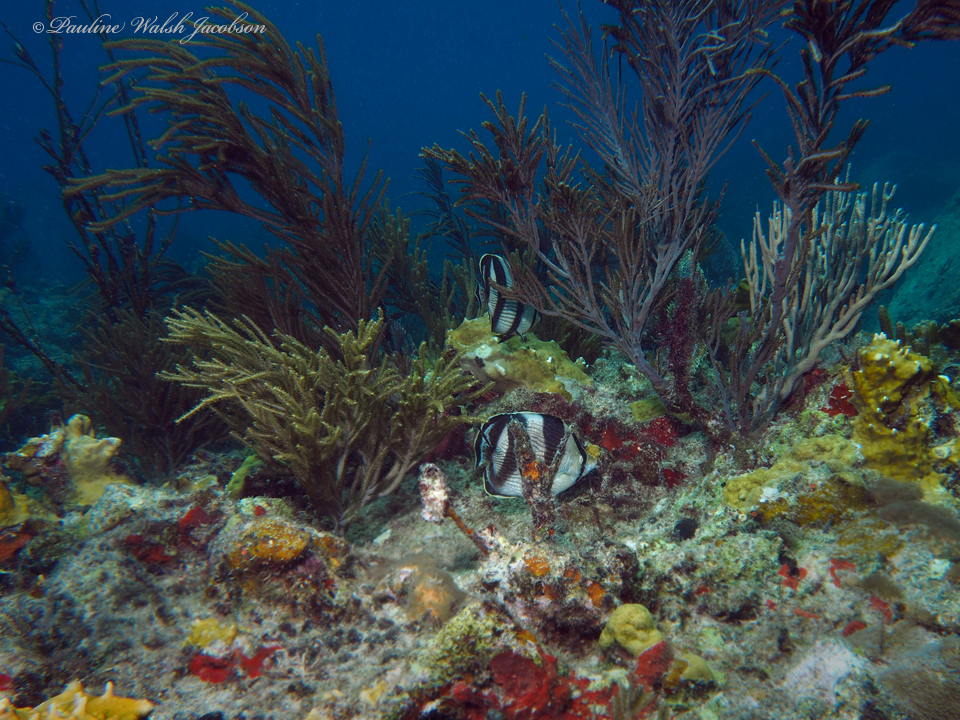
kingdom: Animalia
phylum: Chordata
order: Perciformes
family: Chaetodontidae
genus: Chaetodon
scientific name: Chaetodon striatus
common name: Banded butterflyfish
